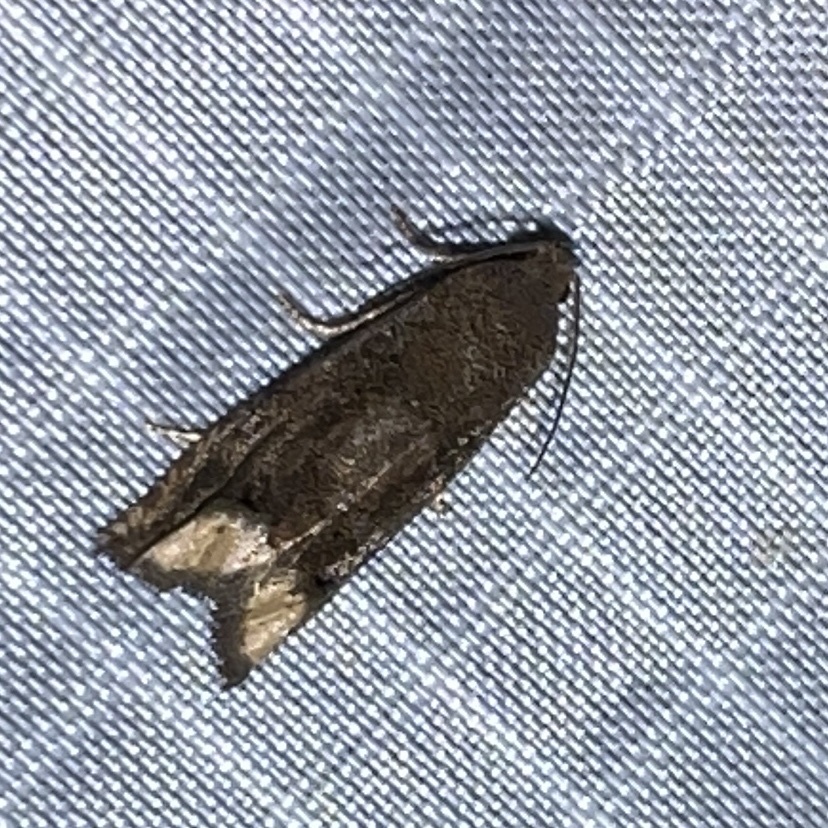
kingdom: Animalia
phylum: Arthropoda
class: Insecta
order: Lepidoptera
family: Tortricidae
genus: Epiblema
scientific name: Epiblema strenuana
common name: Ragweed borer moth
